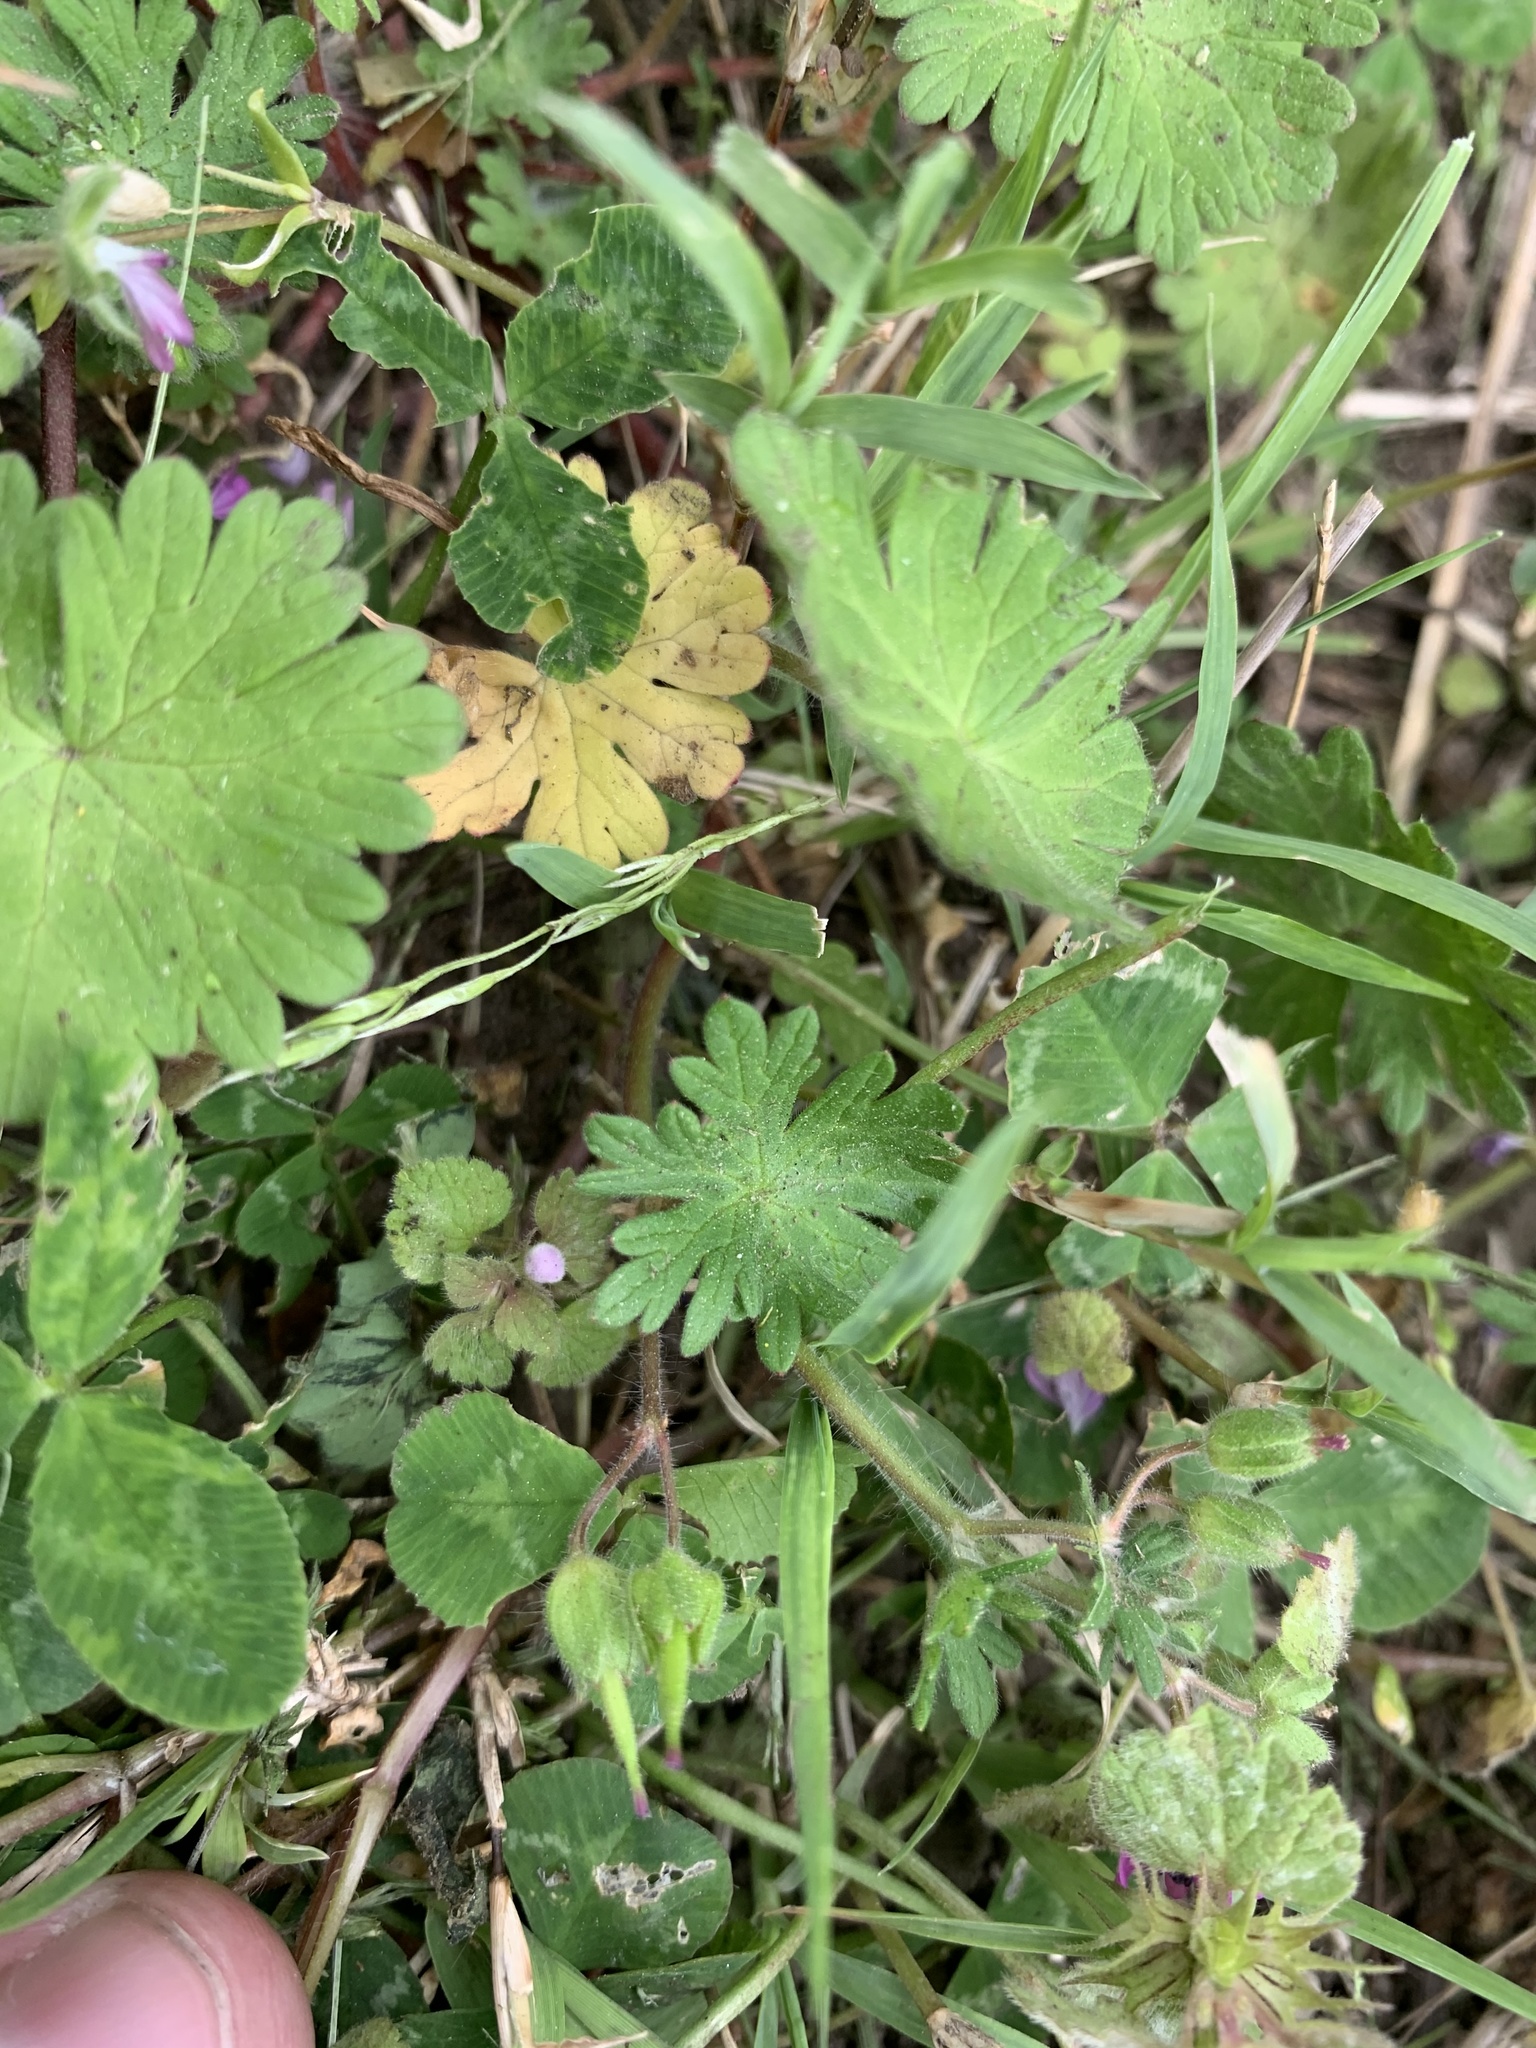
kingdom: Plantae
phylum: Tracheophyta
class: Magnoliopsida
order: Geraniales
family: Geraniaceae
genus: Geranium
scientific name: Geranium molle
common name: Dove's-foot crane's-bill
